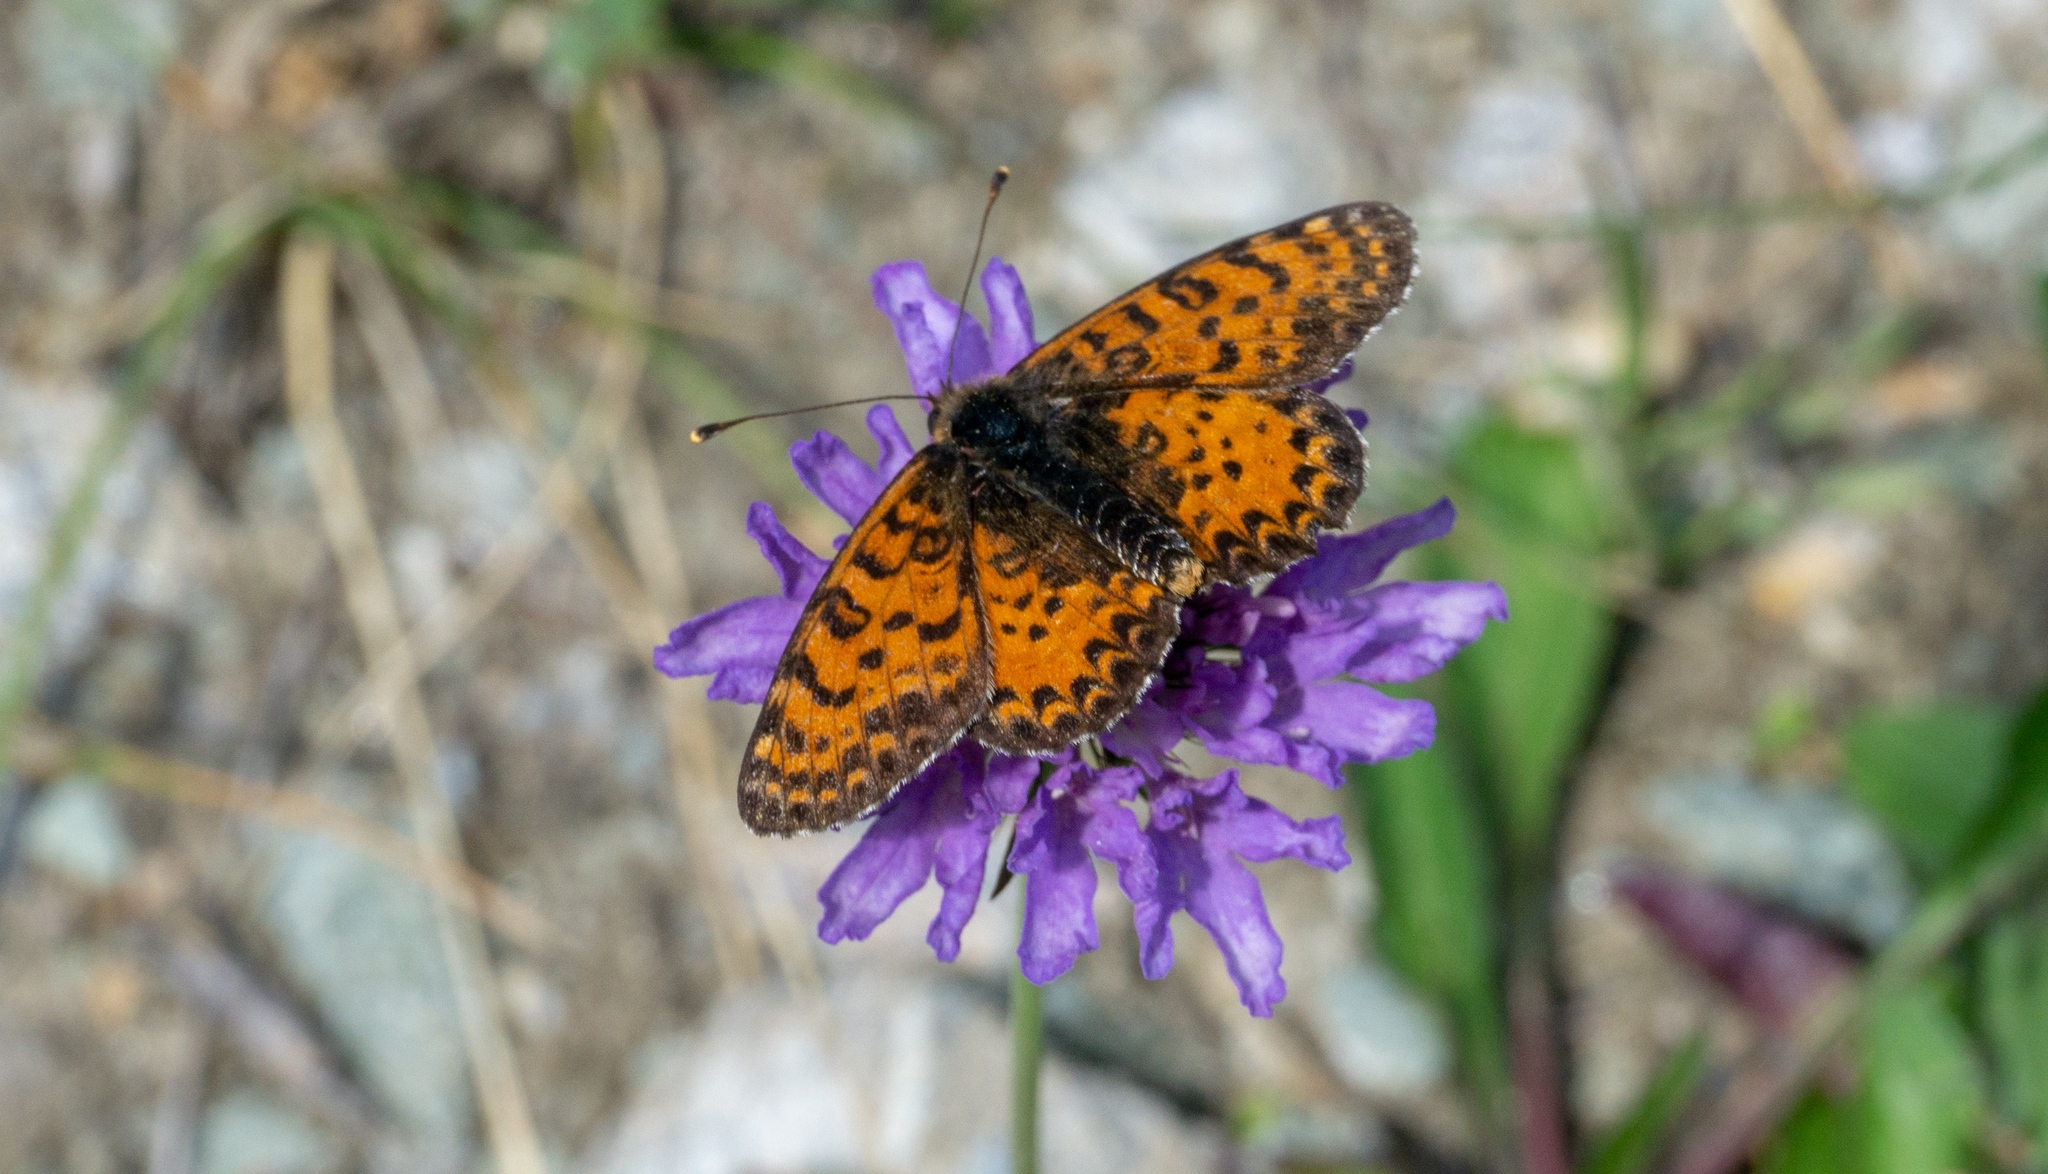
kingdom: Animalia
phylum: Arthropoda
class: Insecta
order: Lepidoptera
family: Nymphalidae
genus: Melitaea
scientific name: Melitaea didyma
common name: Spotted fritillary
